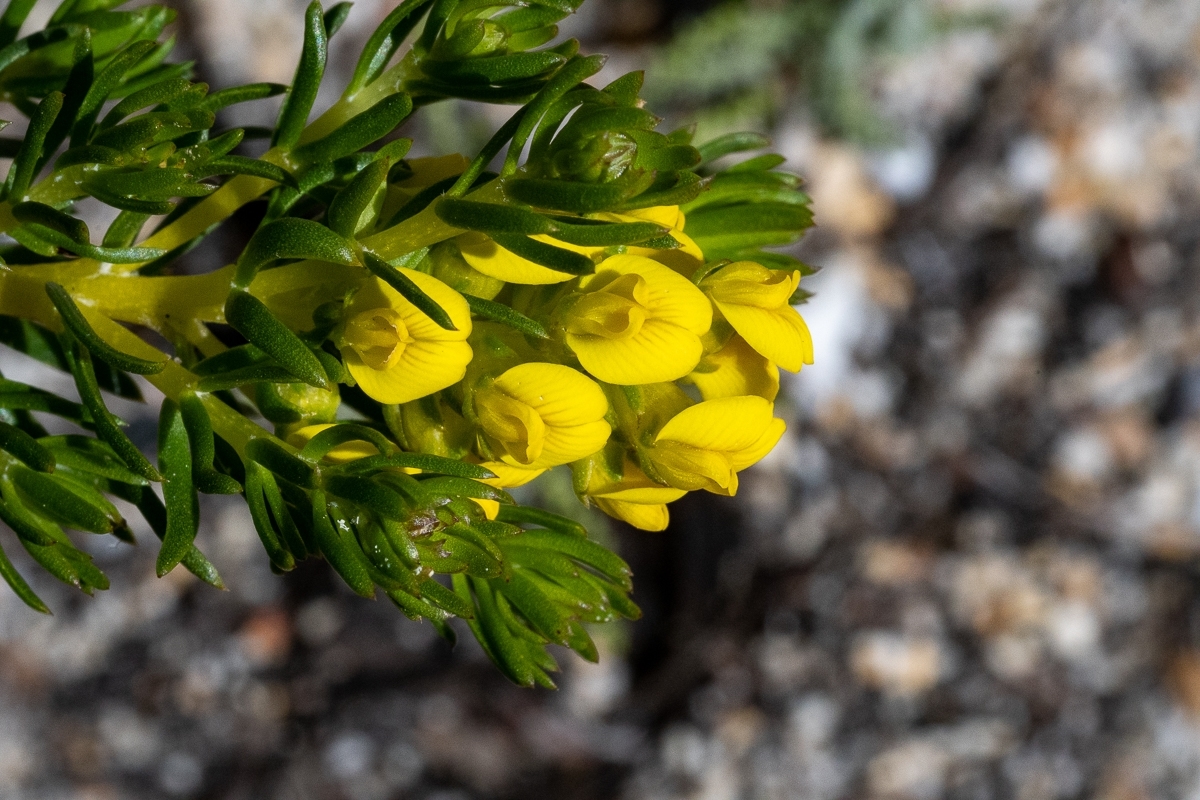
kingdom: Plantae
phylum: Tracheophyta
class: Magnoliopsida
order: Fabales
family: Fabaceae
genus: Aspalathus
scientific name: Aspalathus callosa
